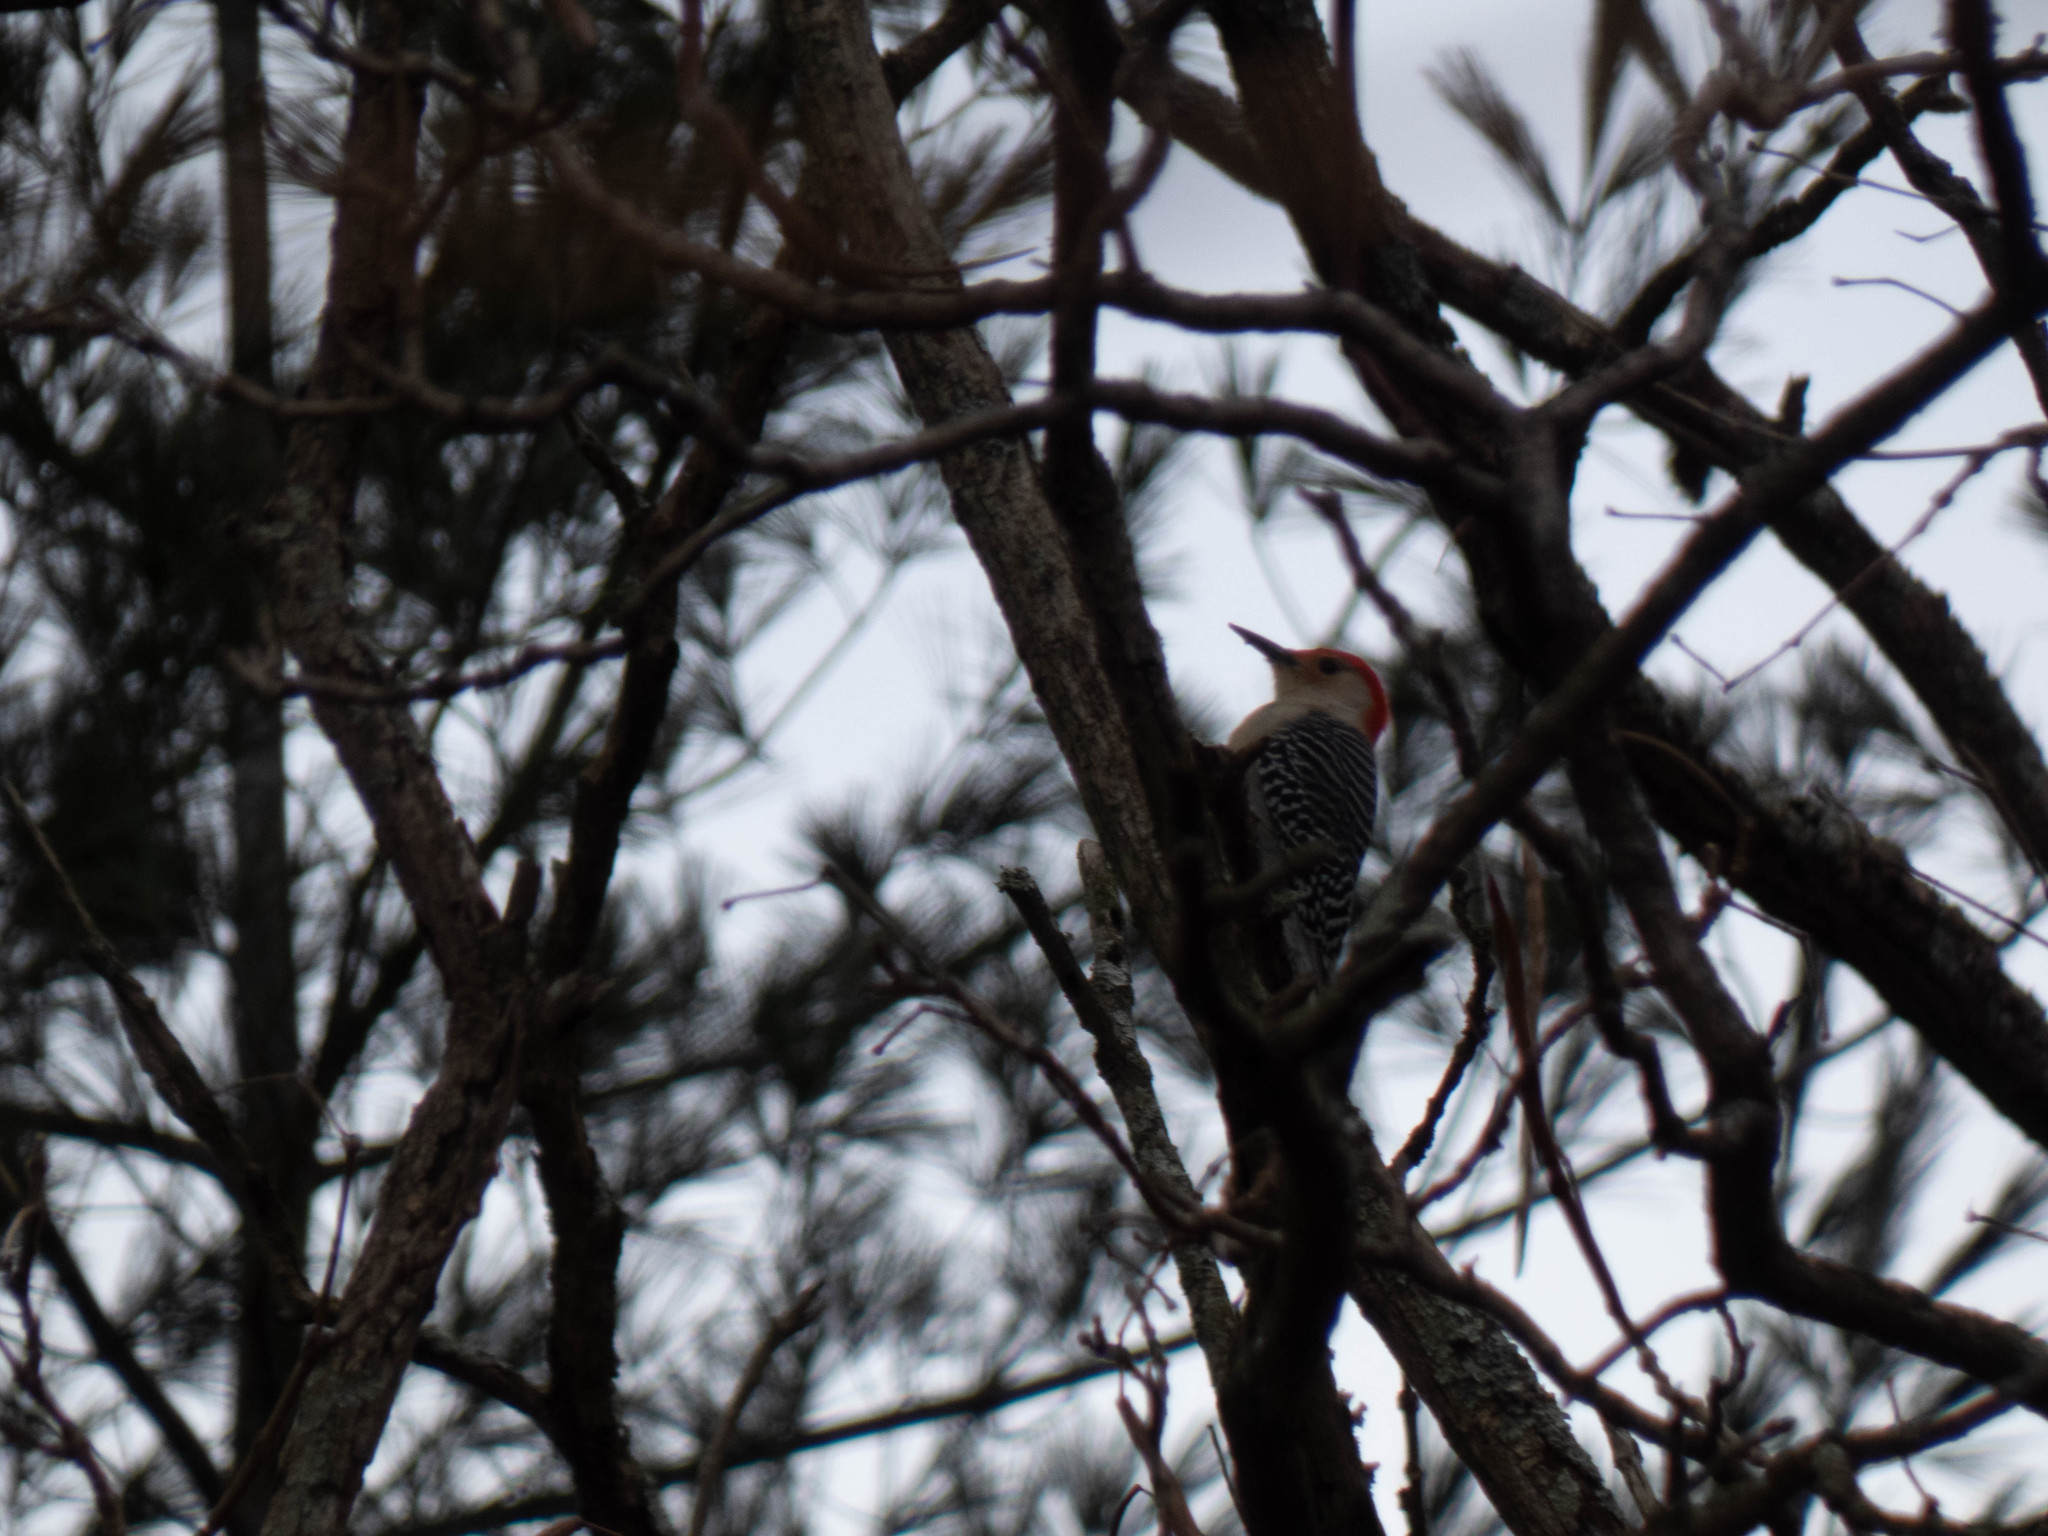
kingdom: Animalia
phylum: Chordata
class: Aves
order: Piciformes
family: Picidae
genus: Melanerpes
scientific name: Melanerpes carolinus
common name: Red-bellied woodpecker
